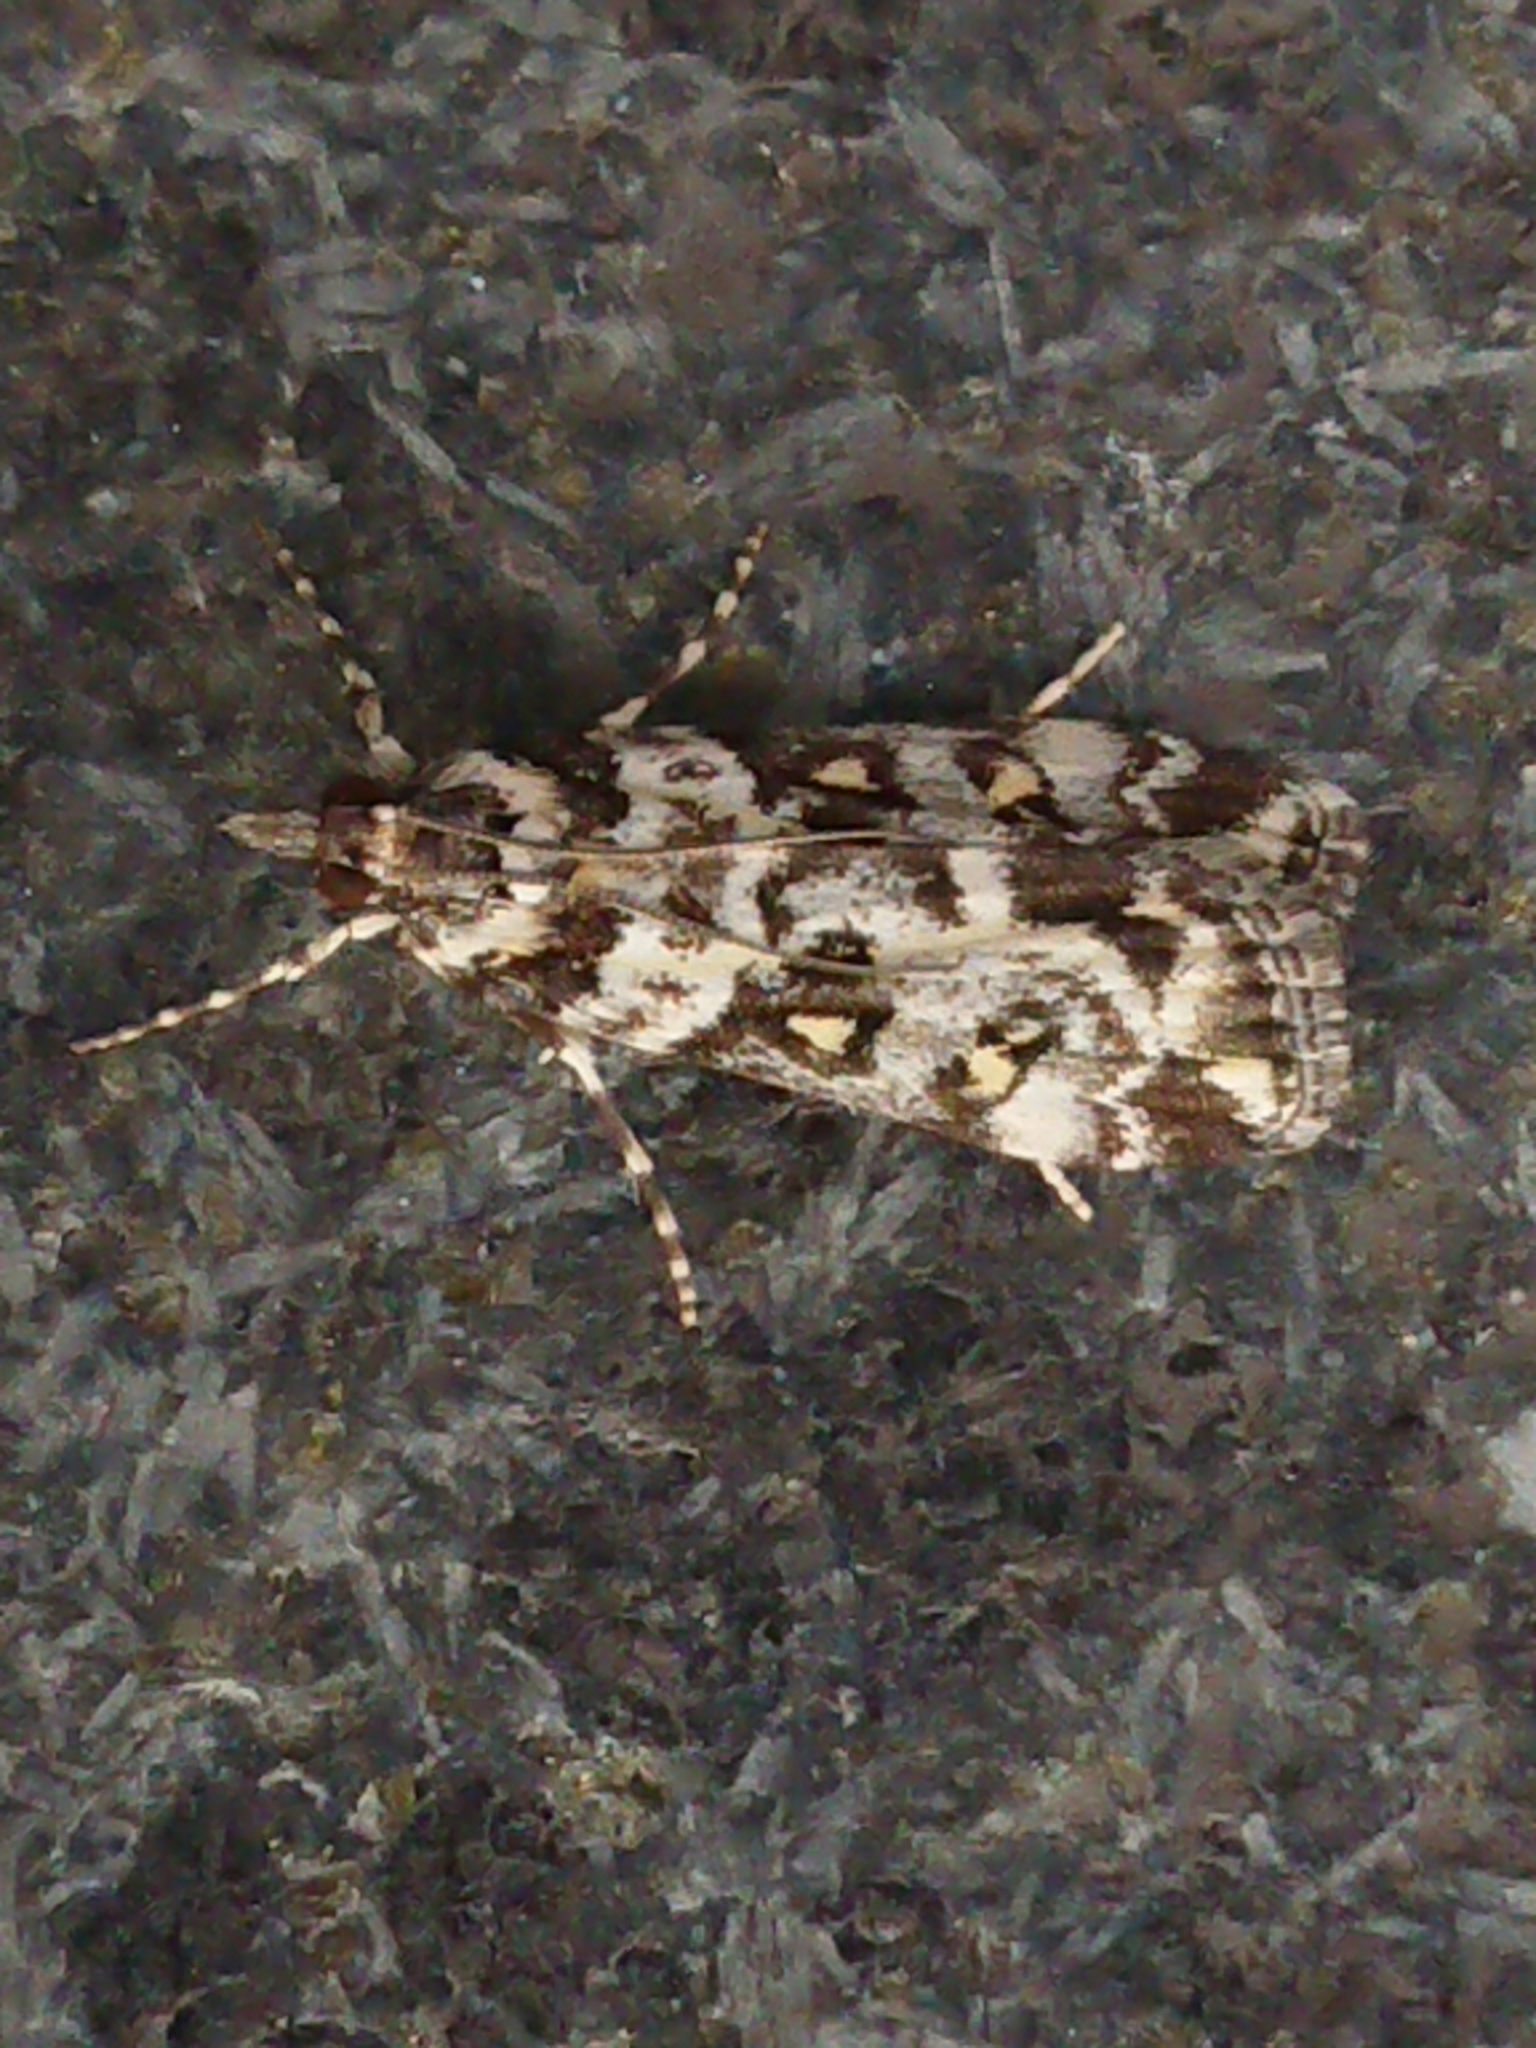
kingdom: Animalia
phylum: Arthropoda
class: Insecta
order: Lepidoptera
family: Crambidae
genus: Eudonia
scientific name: Eudonia diphtheralis
